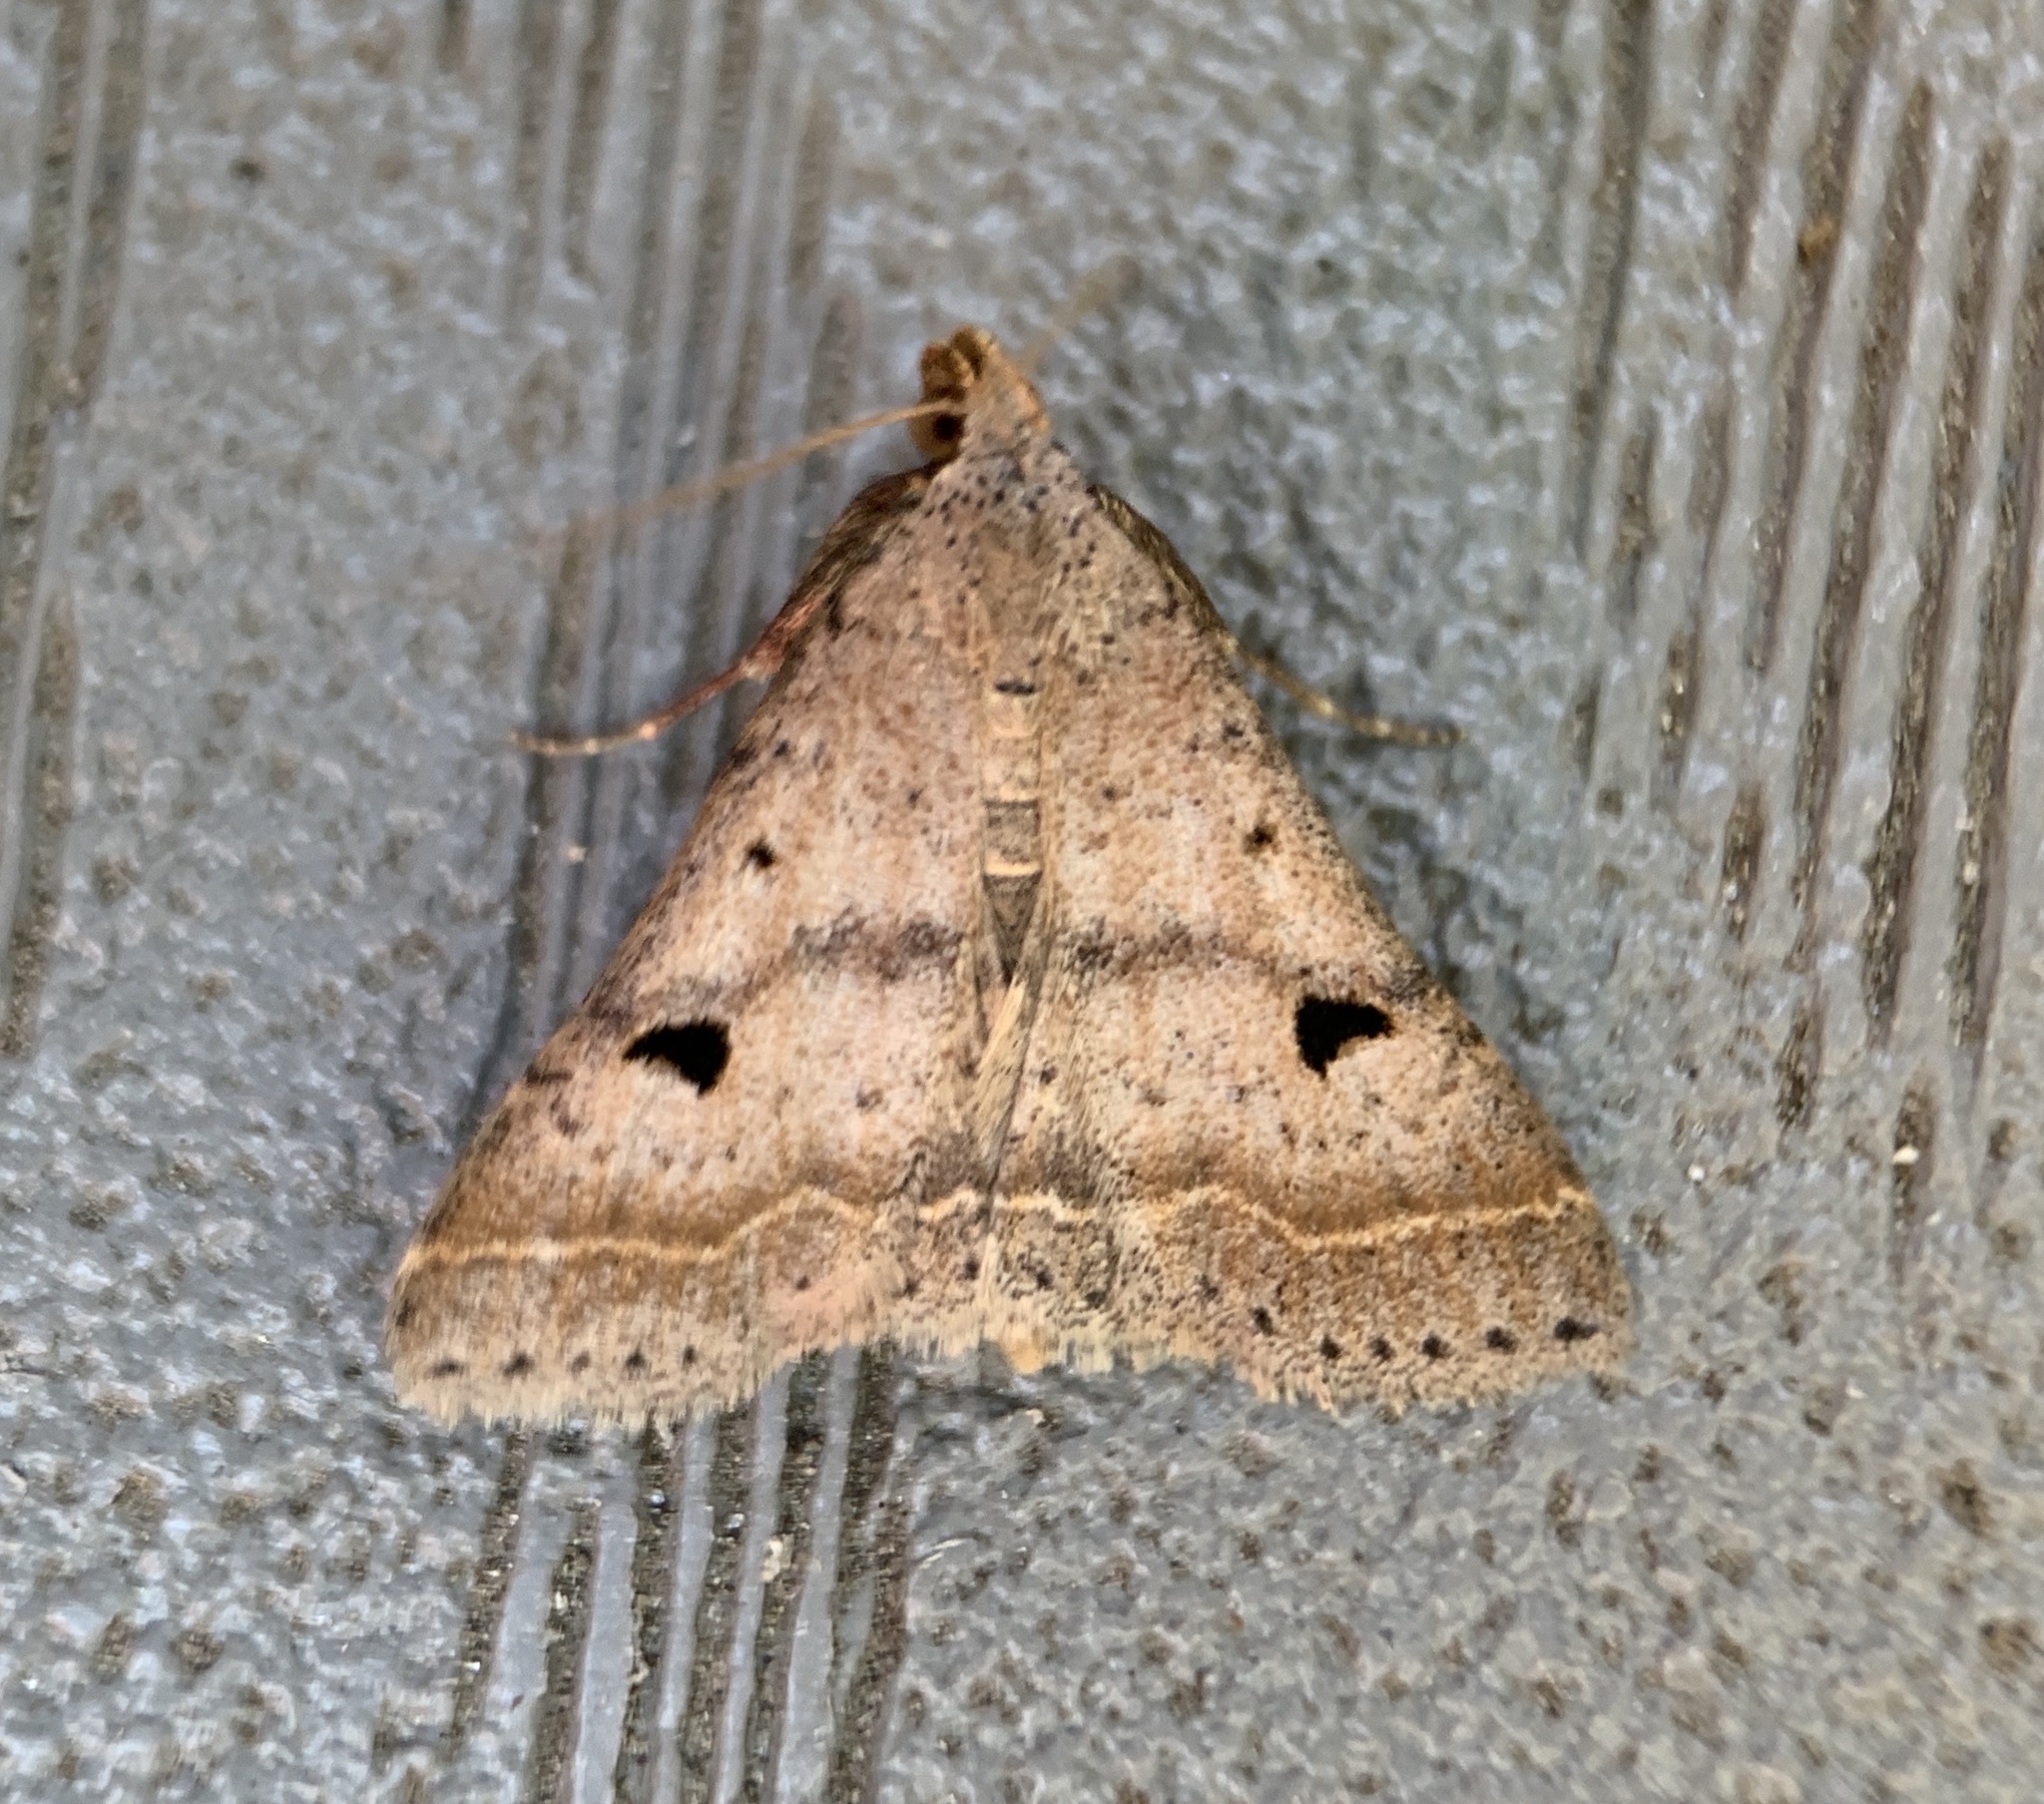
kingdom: Animalia
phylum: Arthropoda
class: Insecta
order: Lepidoptera
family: Erebidae
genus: Bleptina
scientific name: Bleptina caradrinalis
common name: Bent-winged owlet
